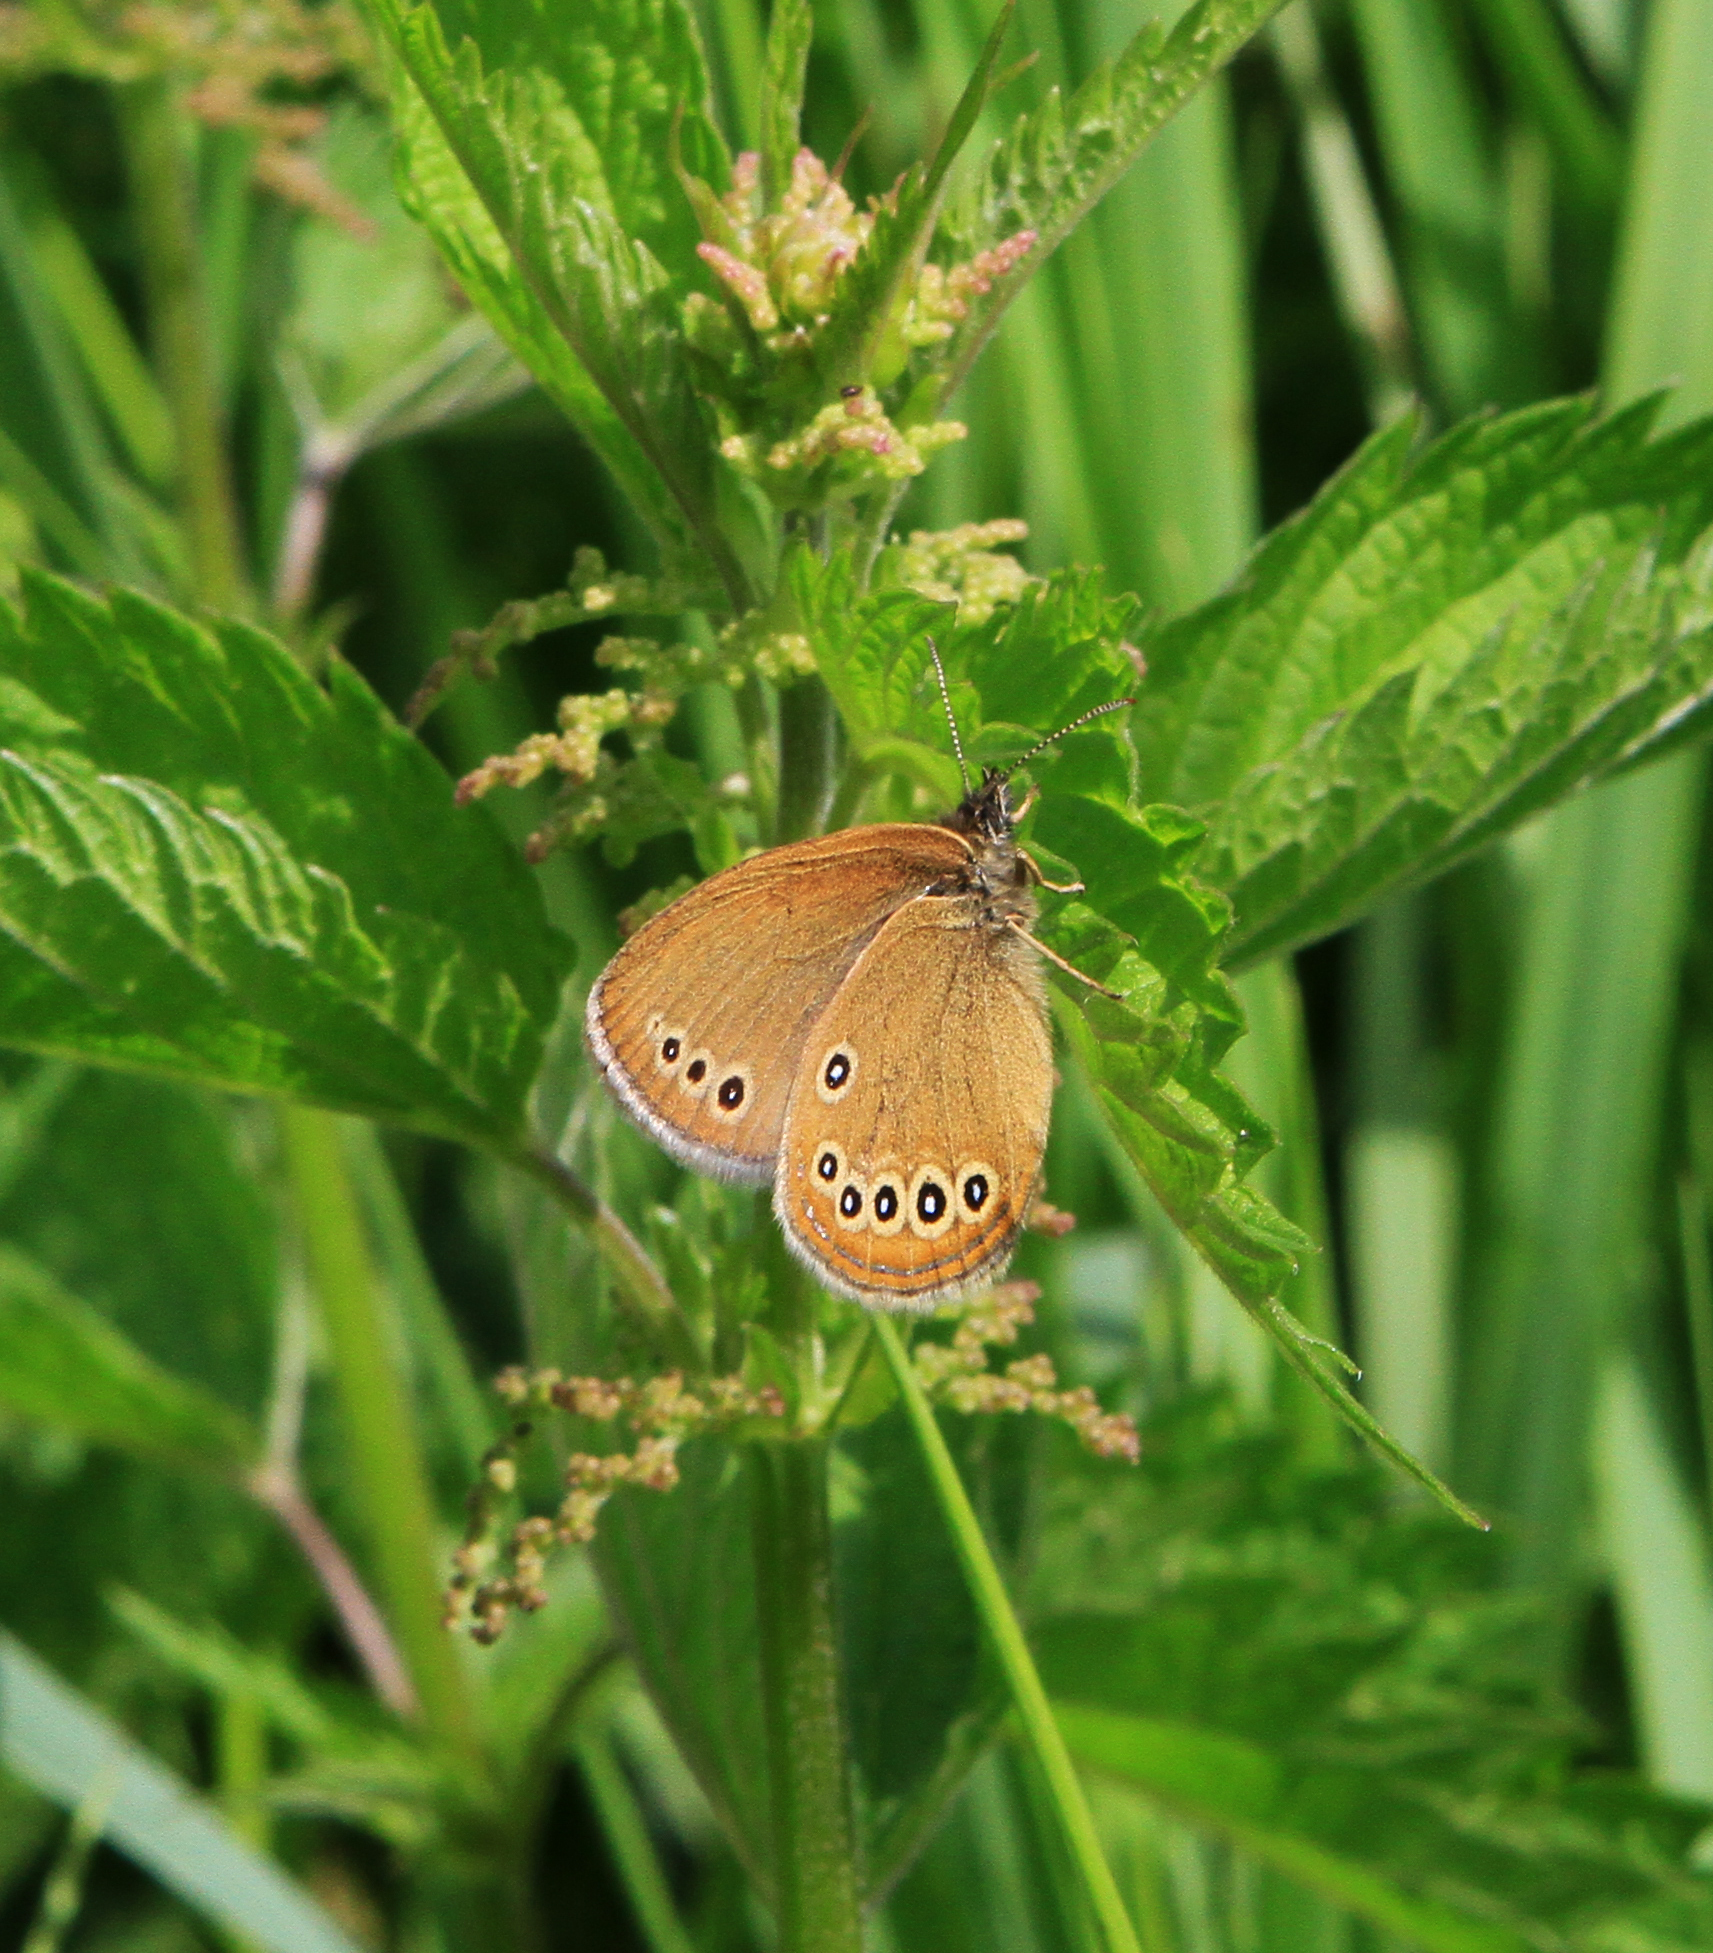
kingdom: Animalia
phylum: Arthropoda
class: Insecta
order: Lepidoptera
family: Nymphalidae
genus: Coenonympha
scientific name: Coenonympha oedippus
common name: False ringlet
